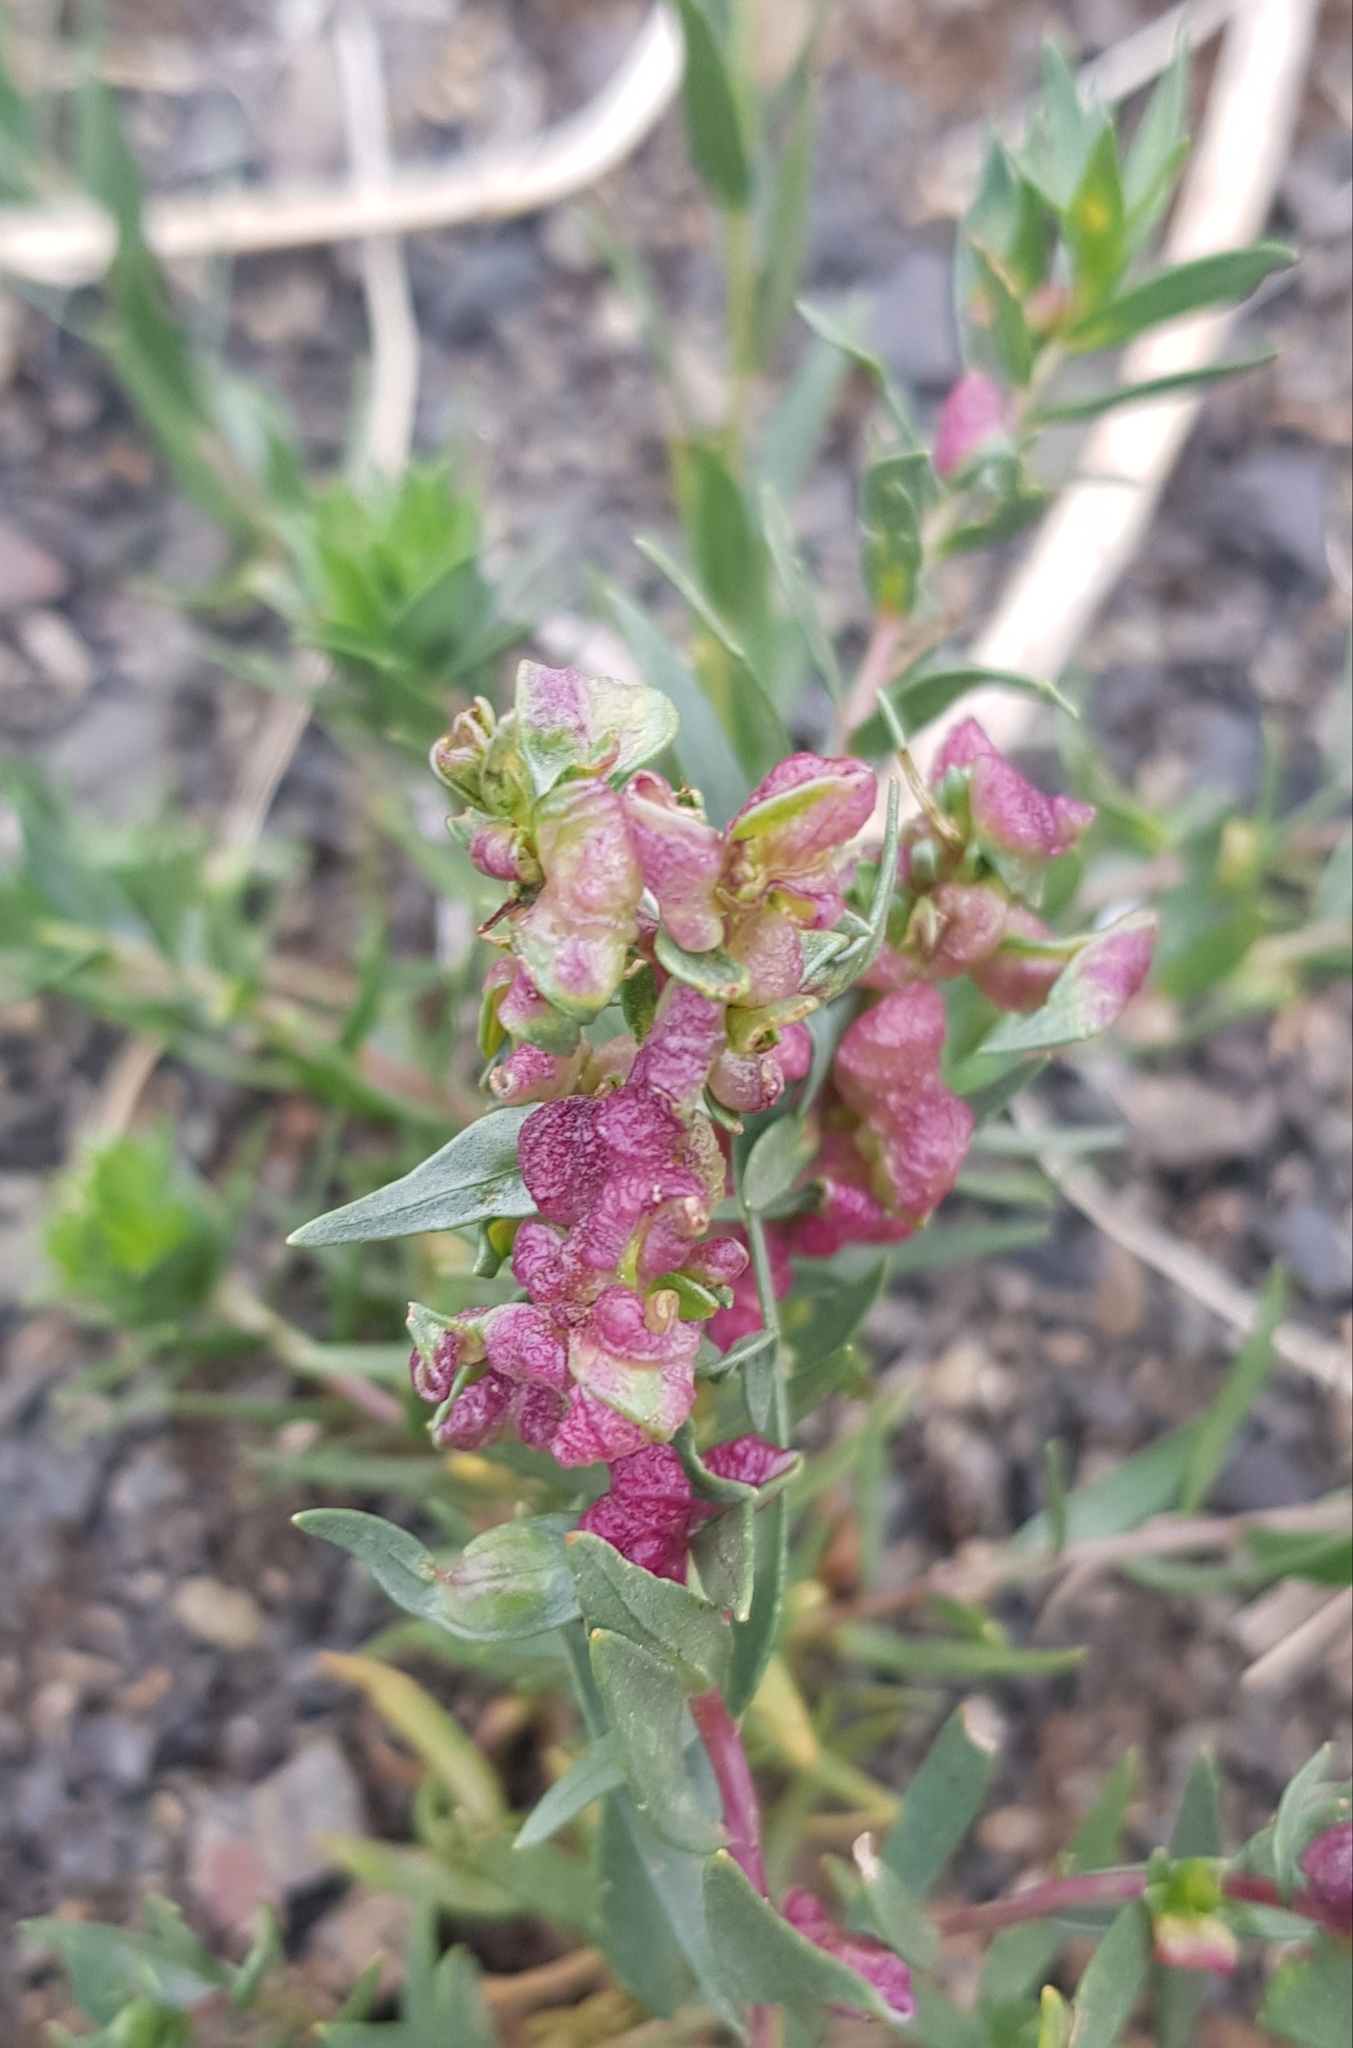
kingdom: Plantae
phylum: Tracheophyta
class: Magnoliopsida
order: Caryophyllales
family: Polygonaceae
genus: Atraphaxis
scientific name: Atraphaxis pungens
